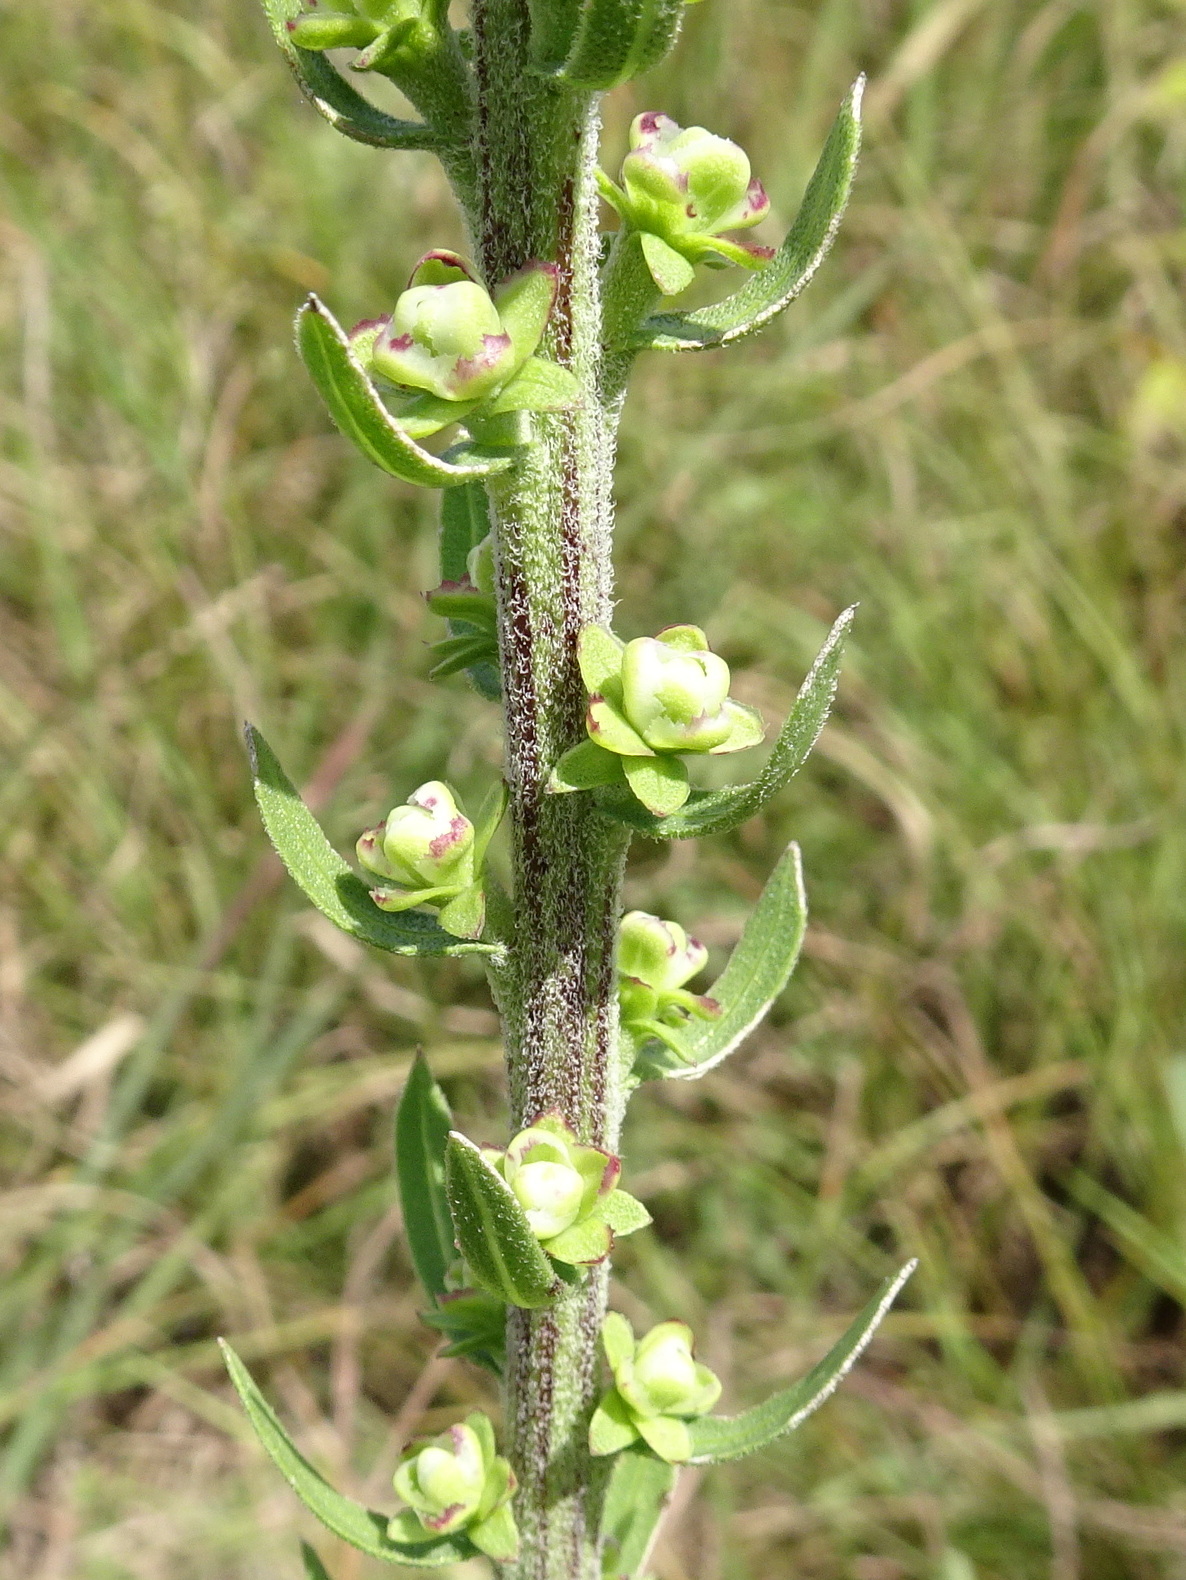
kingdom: Plantae
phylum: Tracheophyta
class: Magnoliopsida
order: Asterales
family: Asteraceae
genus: Liatris
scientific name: Liatris aspera
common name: Lacerate blazing-star
